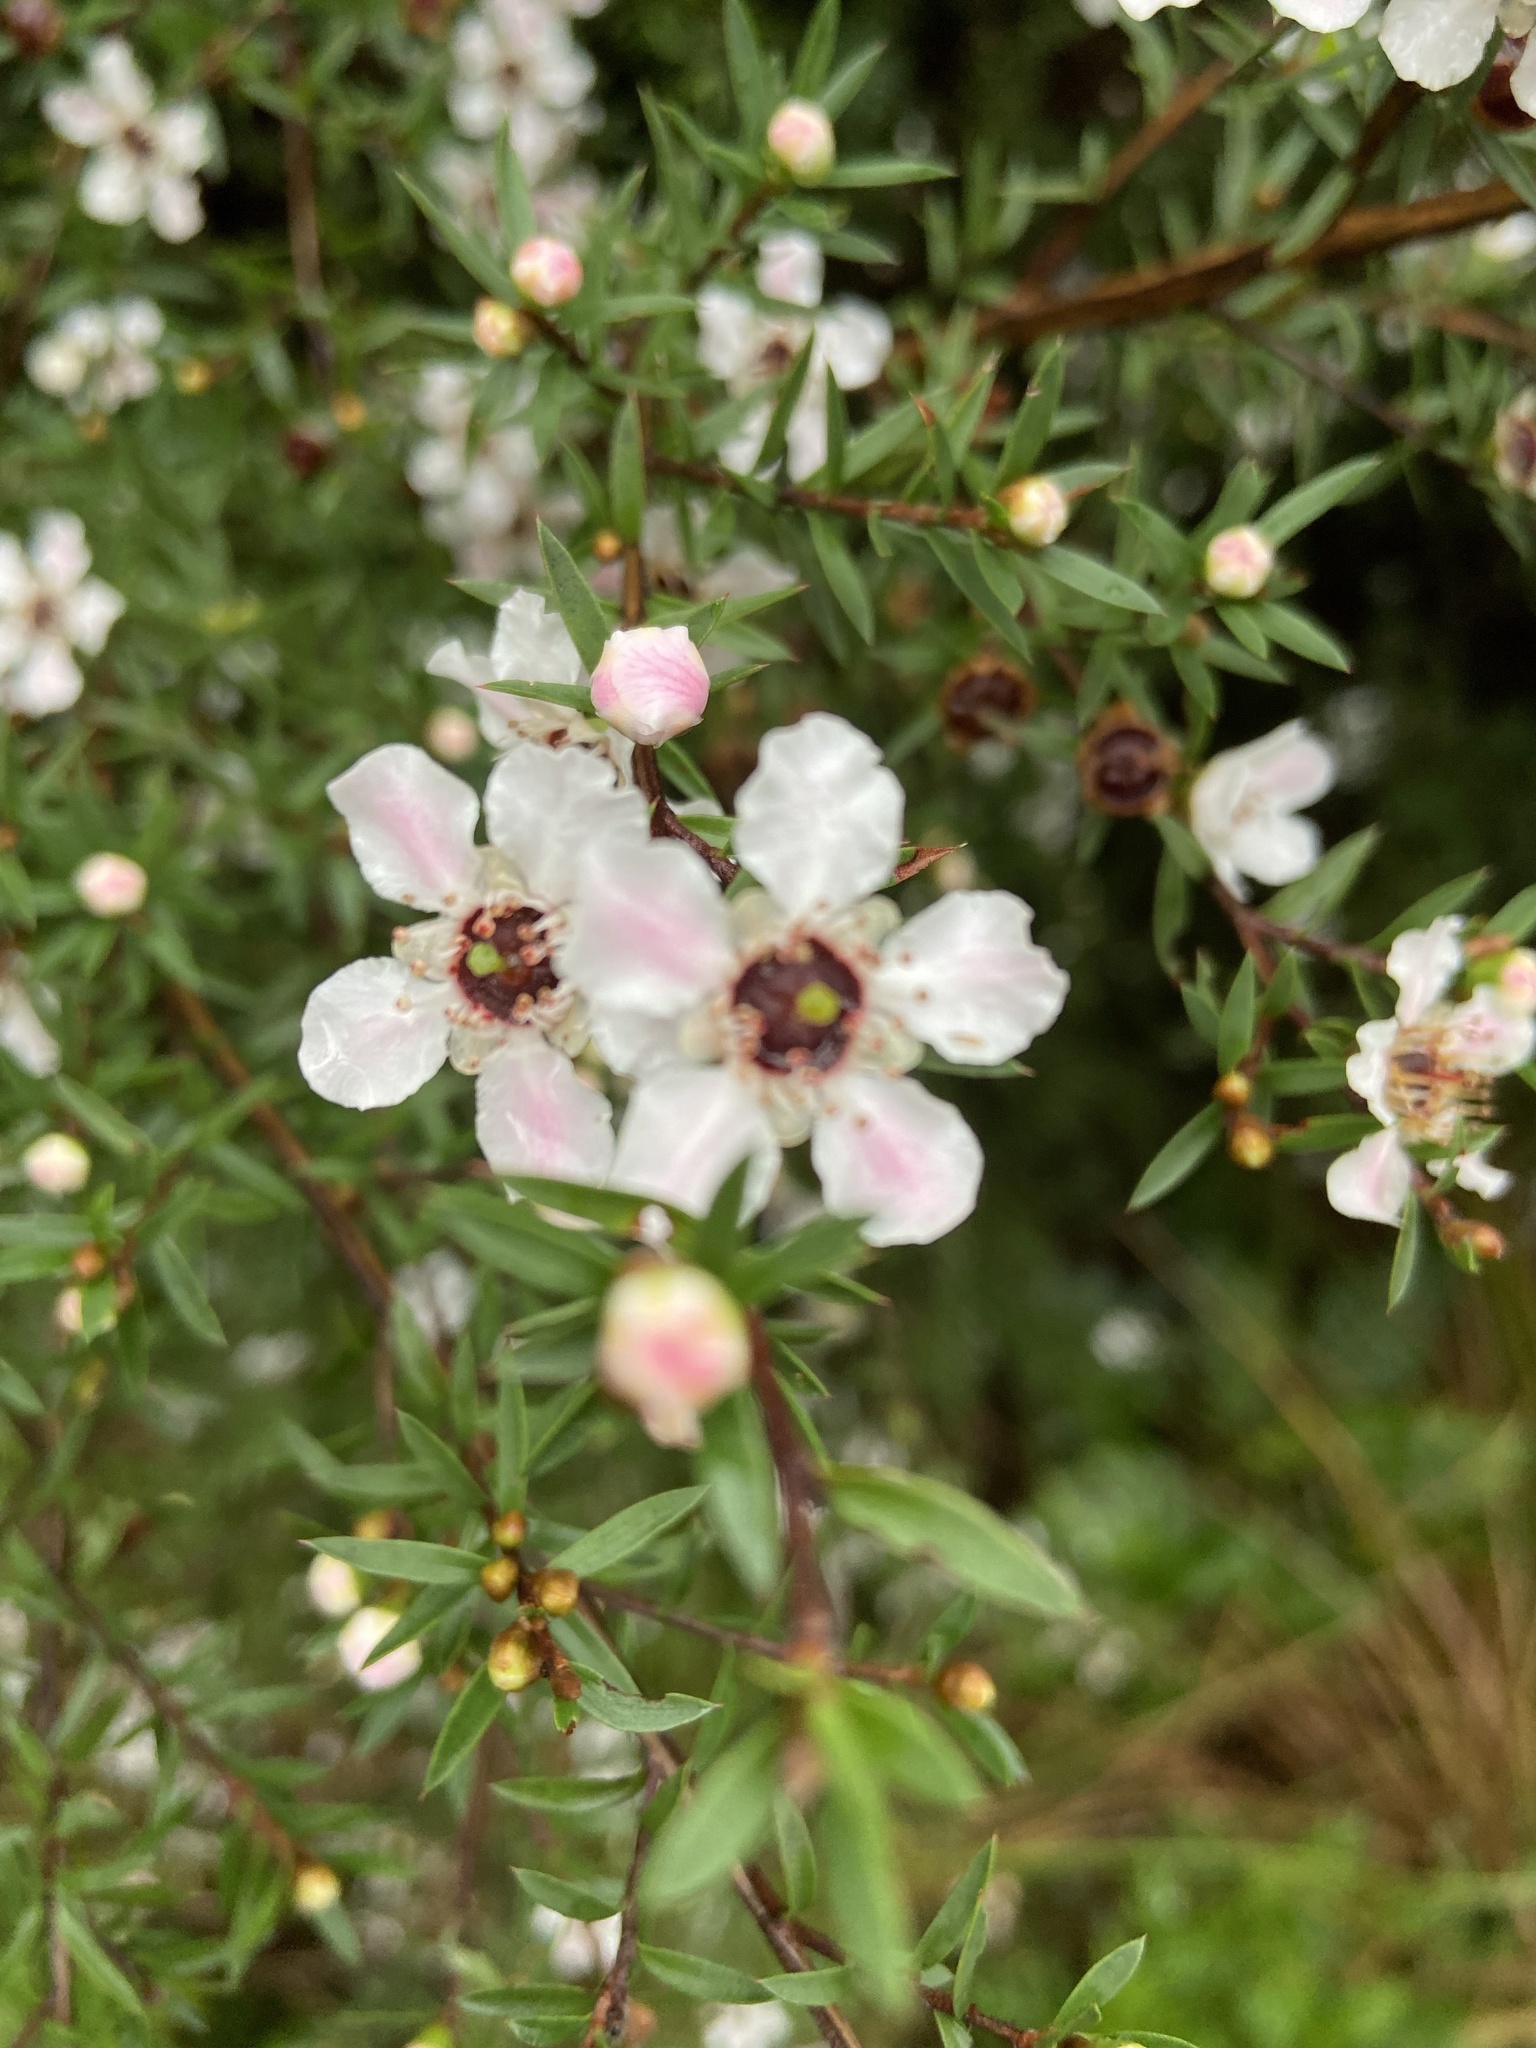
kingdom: Plantae
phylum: Tracheophyta
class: Magnoliopsida
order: Myrtales
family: Myrtaceae
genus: Leptospermum
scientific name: Leptospermum scoparium
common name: Broom tea-tree
